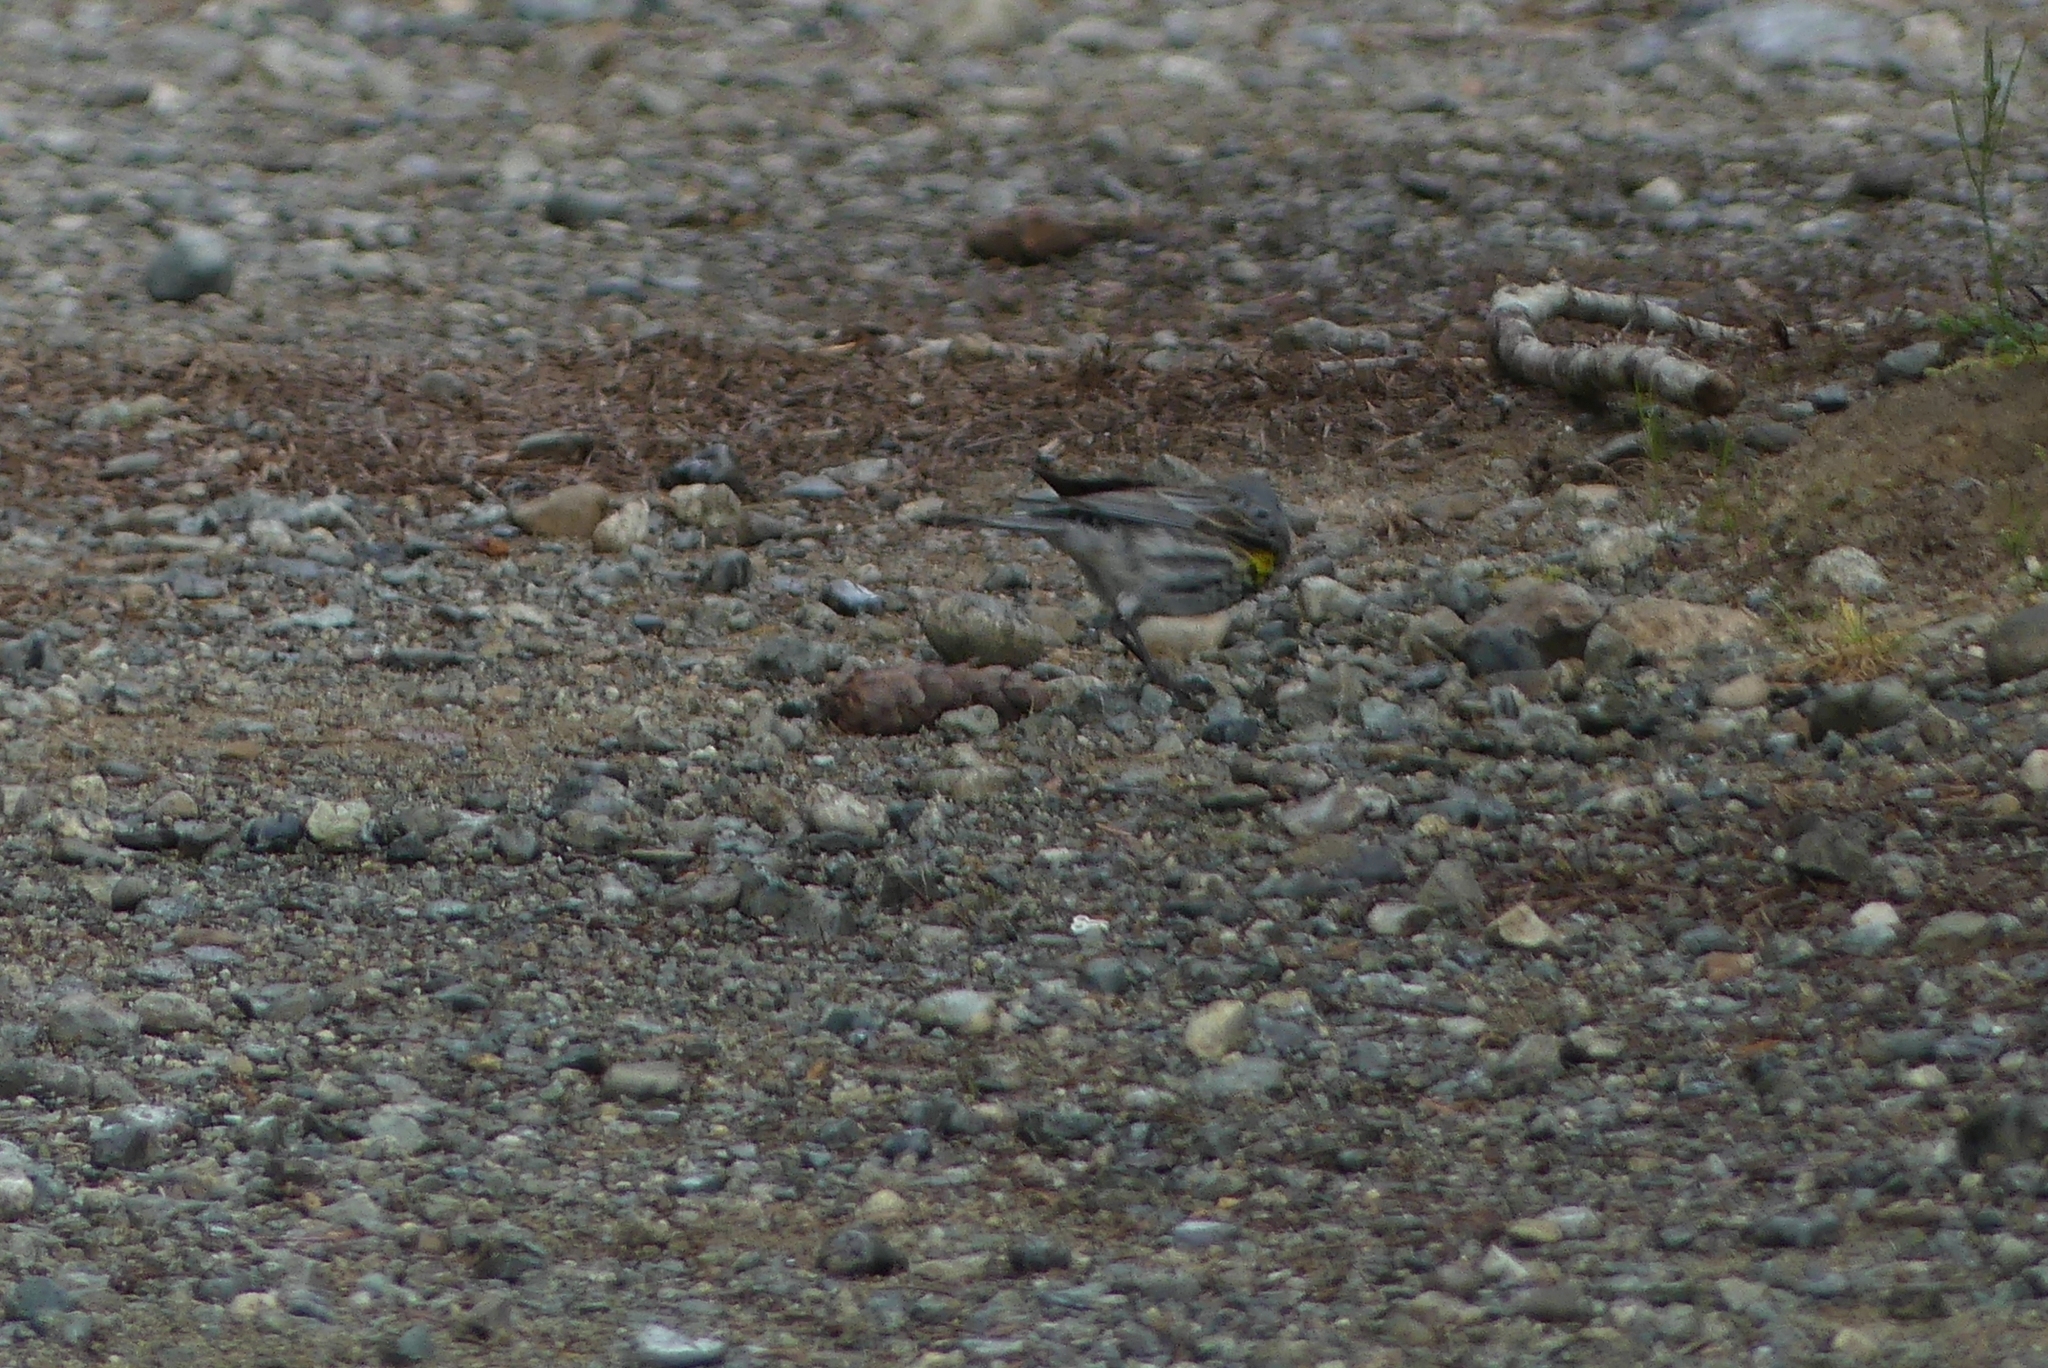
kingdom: Animalia
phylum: Chordata
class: Aves
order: Passeriformes
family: Parulidae
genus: Setophaga
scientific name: Setophaga coronata
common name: Myrtle warbler
